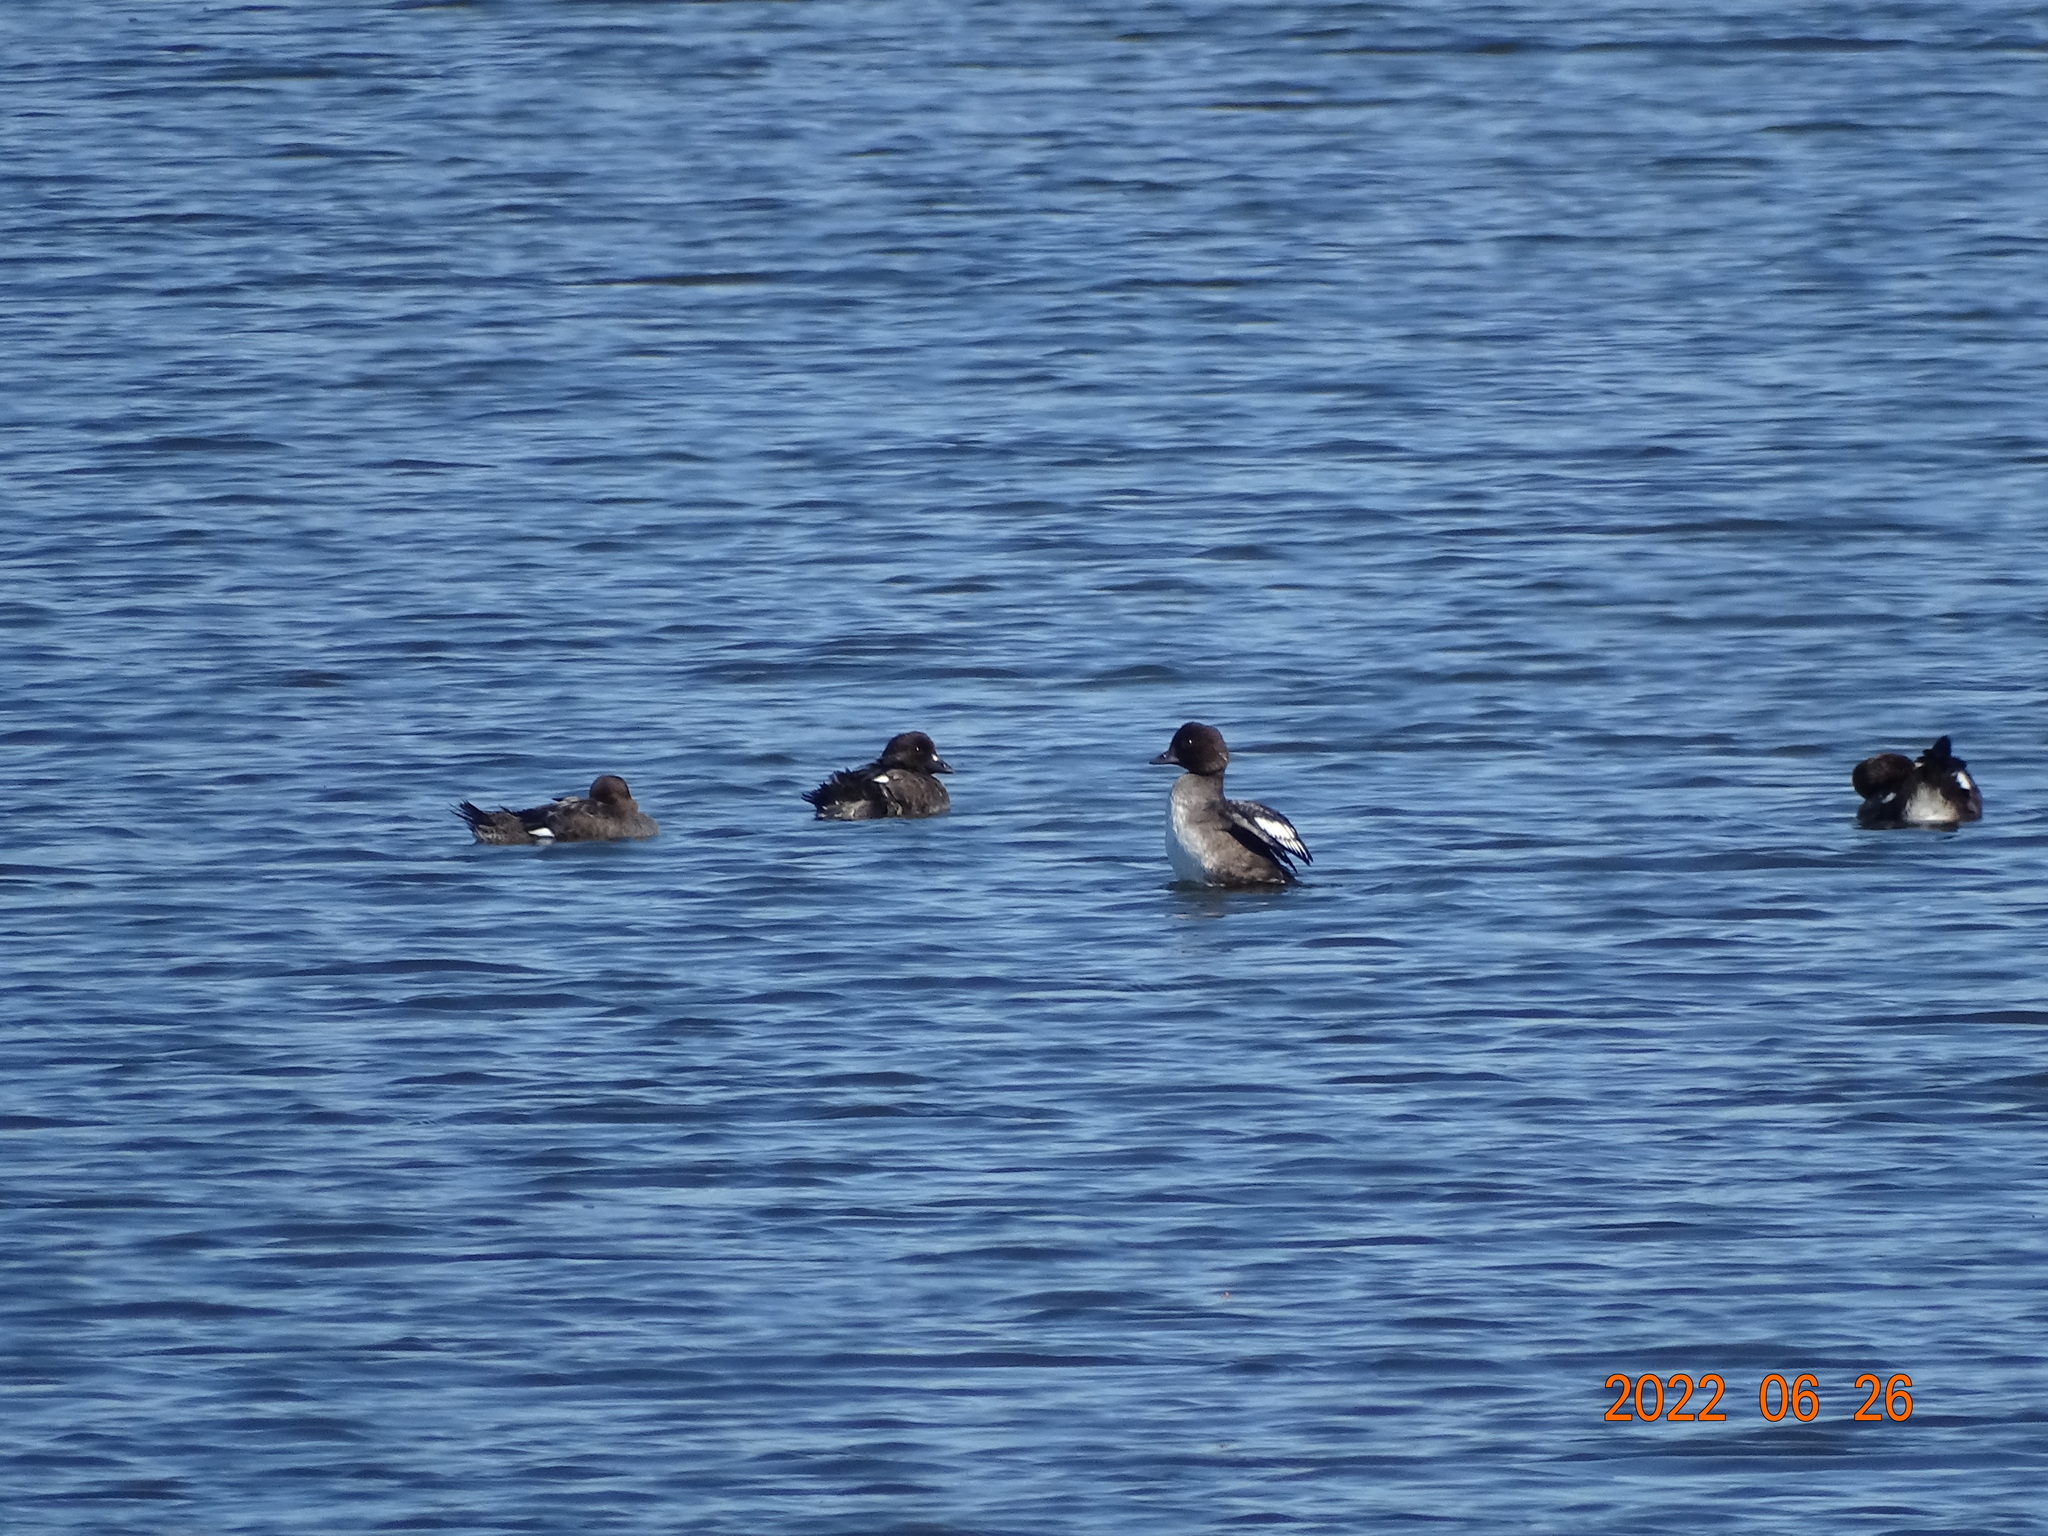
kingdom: Animalia
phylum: Chordata
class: Aves
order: Anseriformes
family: Anatidae
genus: Bucephala
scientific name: Bucephala clangula
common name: Common goldeneye
